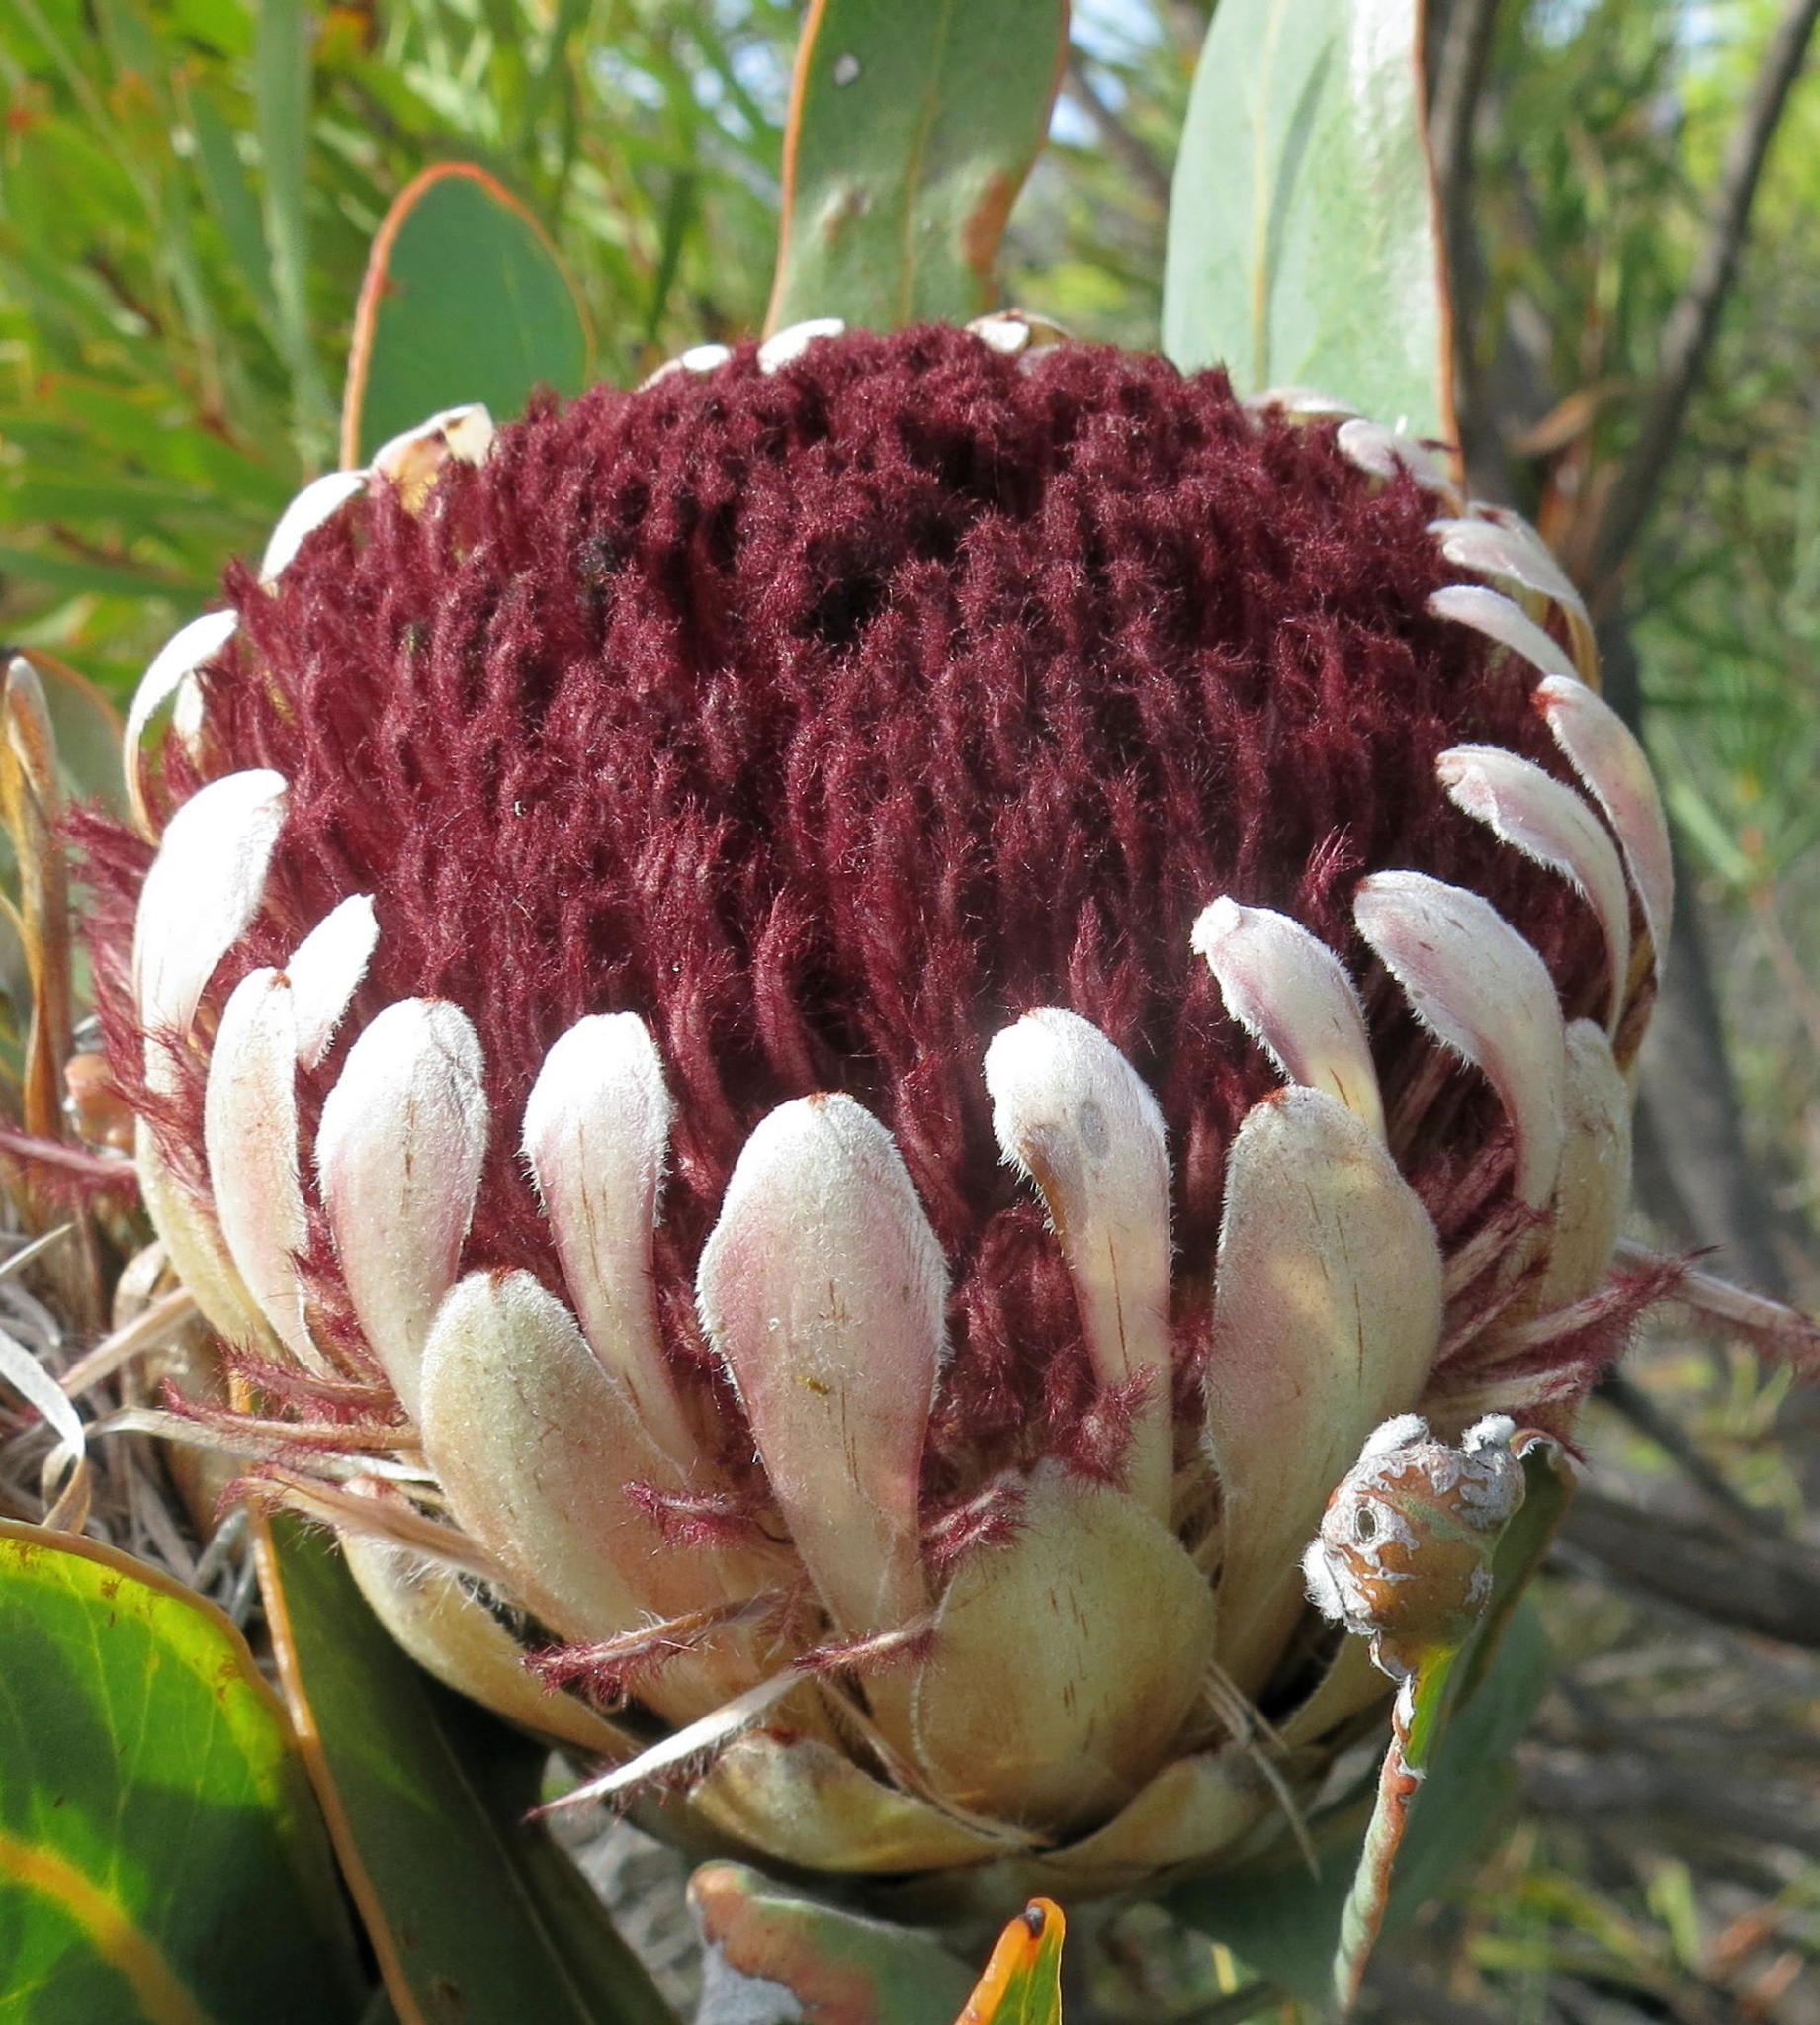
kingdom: Plantae
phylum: Tracheophyta
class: Magnoliopsida
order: Proteales
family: Proteaceae
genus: Protea
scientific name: Protea lorifolia
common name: Strap-leaved protea
